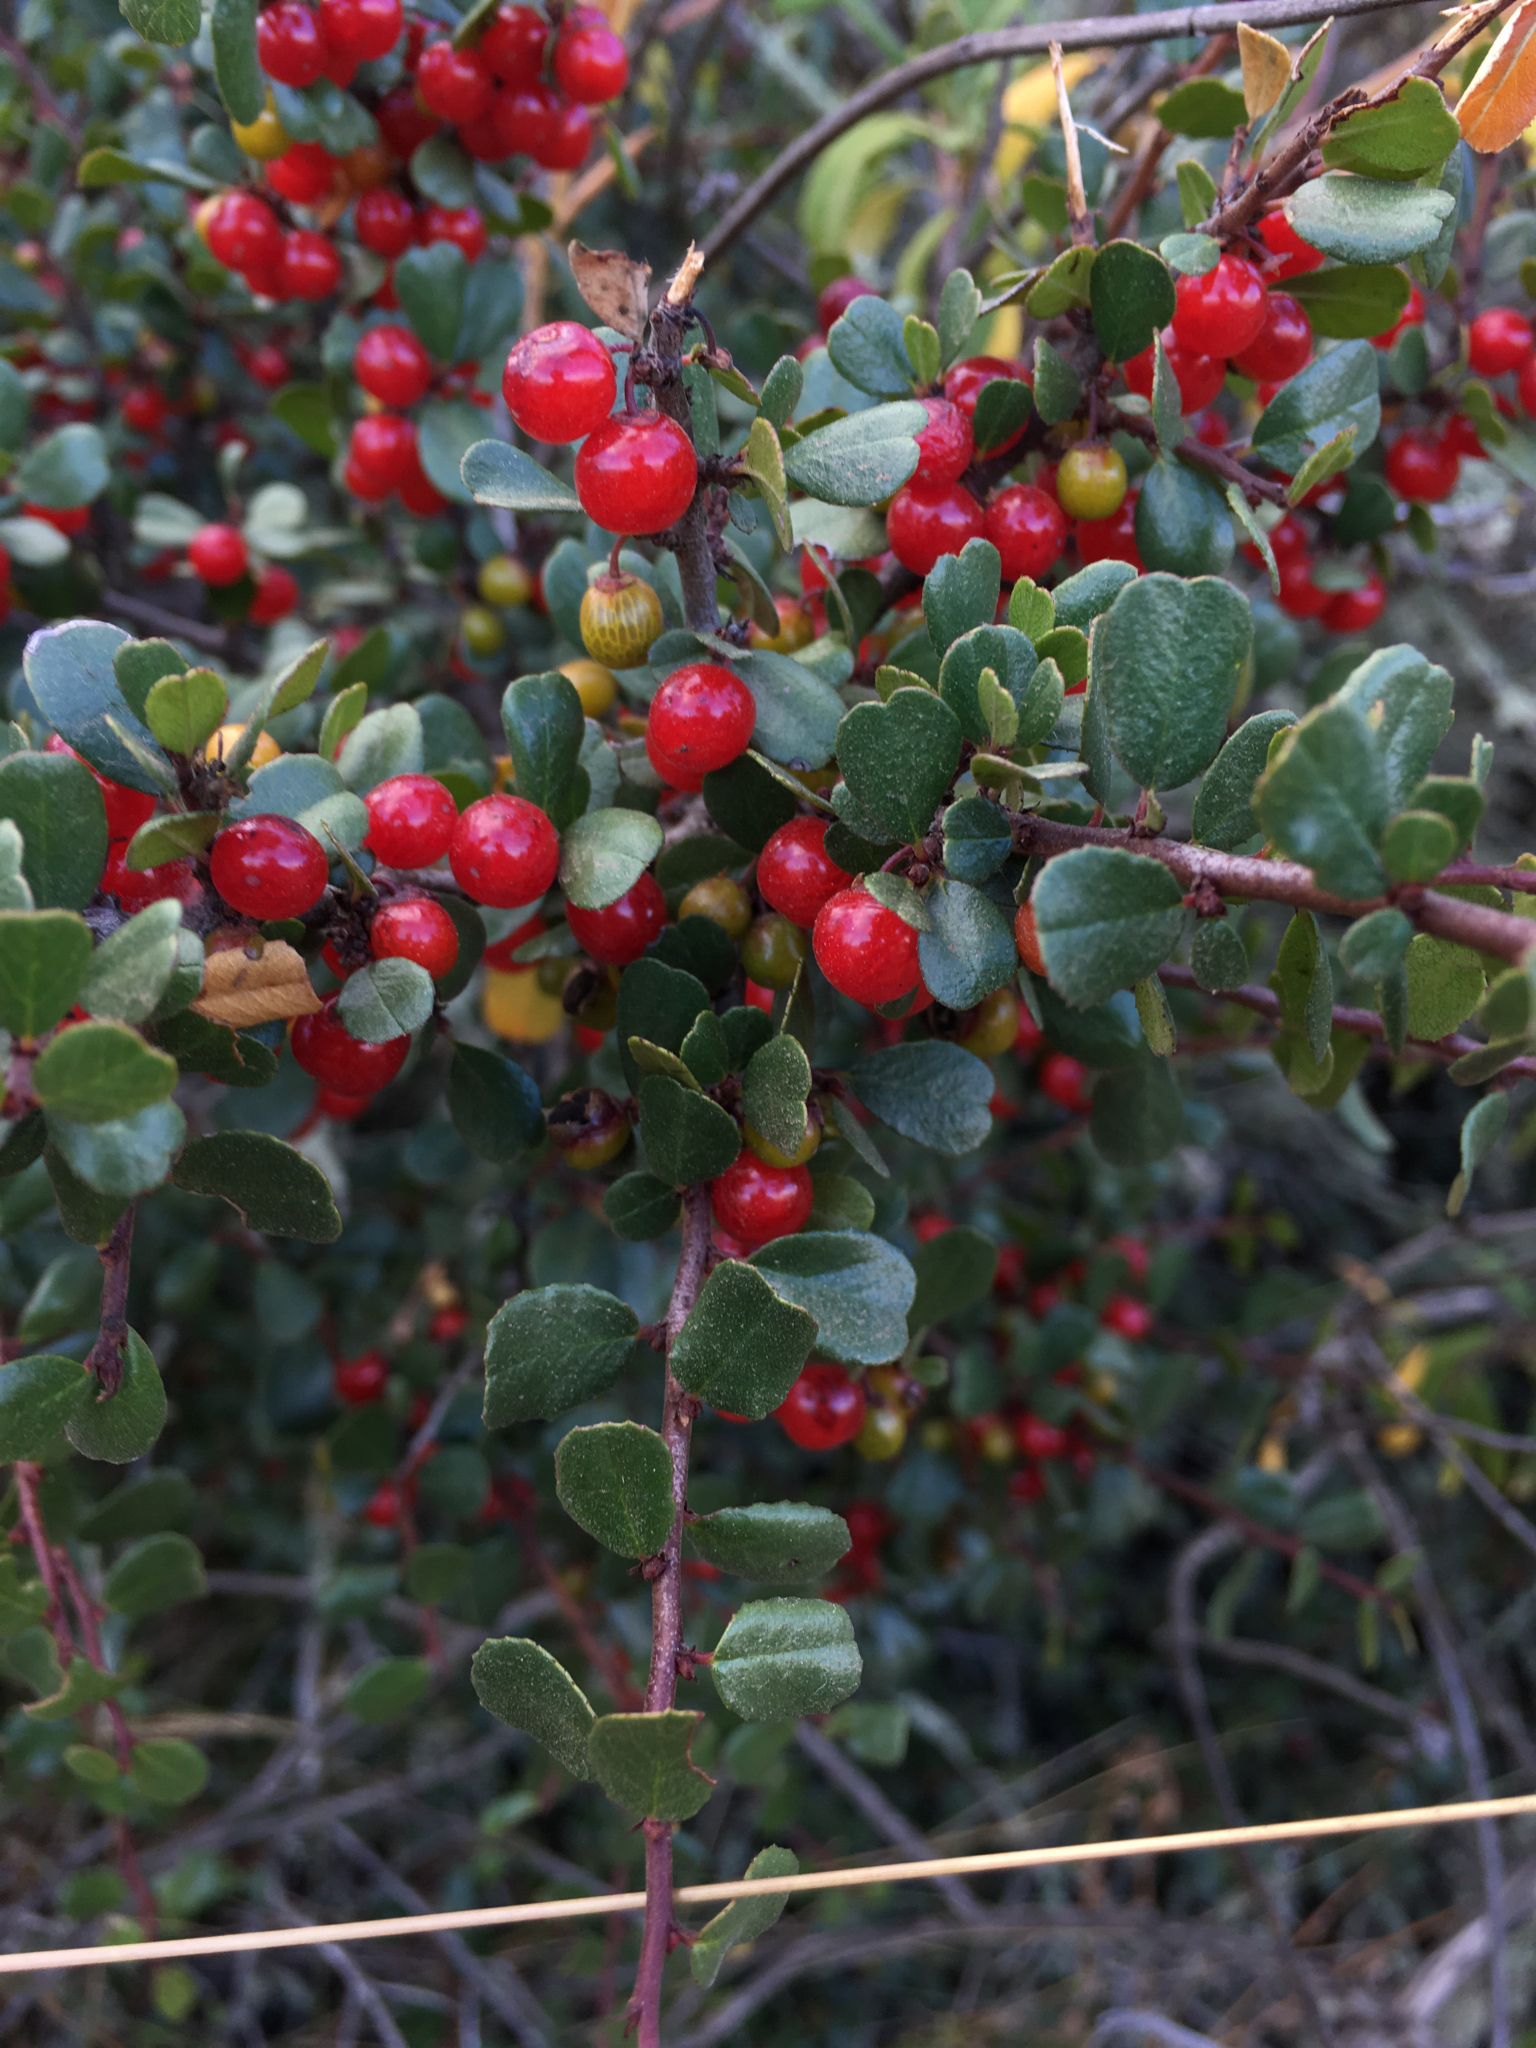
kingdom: Plantae
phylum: Tracheophyta
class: Magnoliopsida
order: Rosales
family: Rhamnaceae
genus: Endotropis
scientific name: Endotropis crocea
